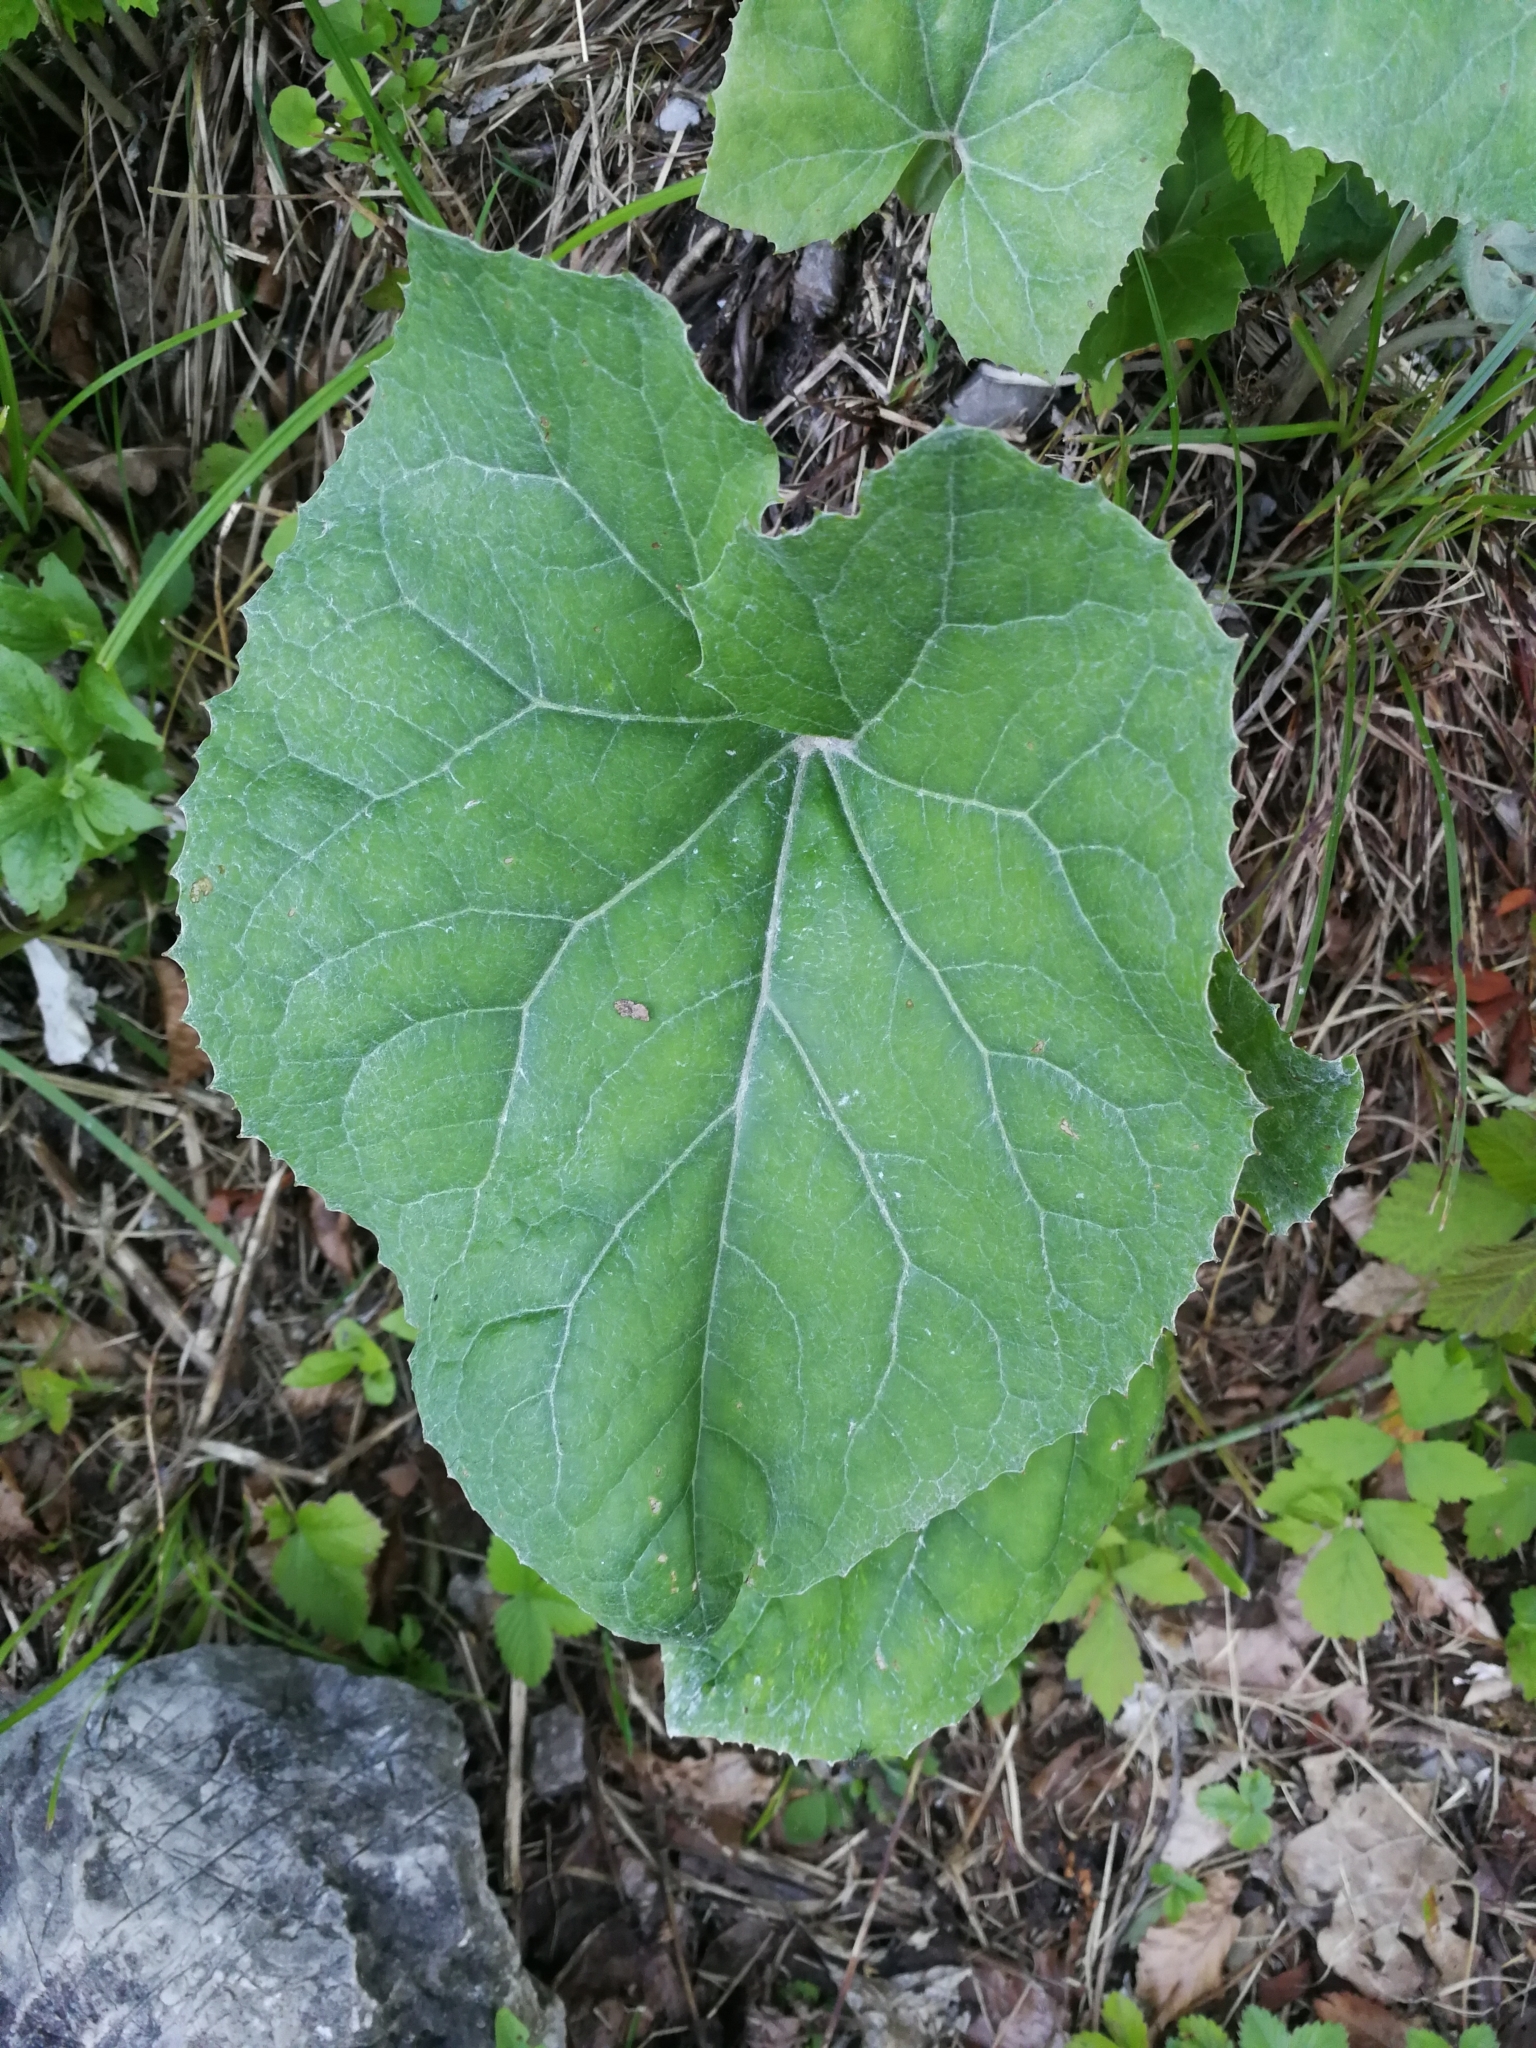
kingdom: Plantae
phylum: Tracheophyta
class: Magnoliopsida
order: Asterales
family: Asteraceae
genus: Petasites
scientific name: Petasites paradoxus
